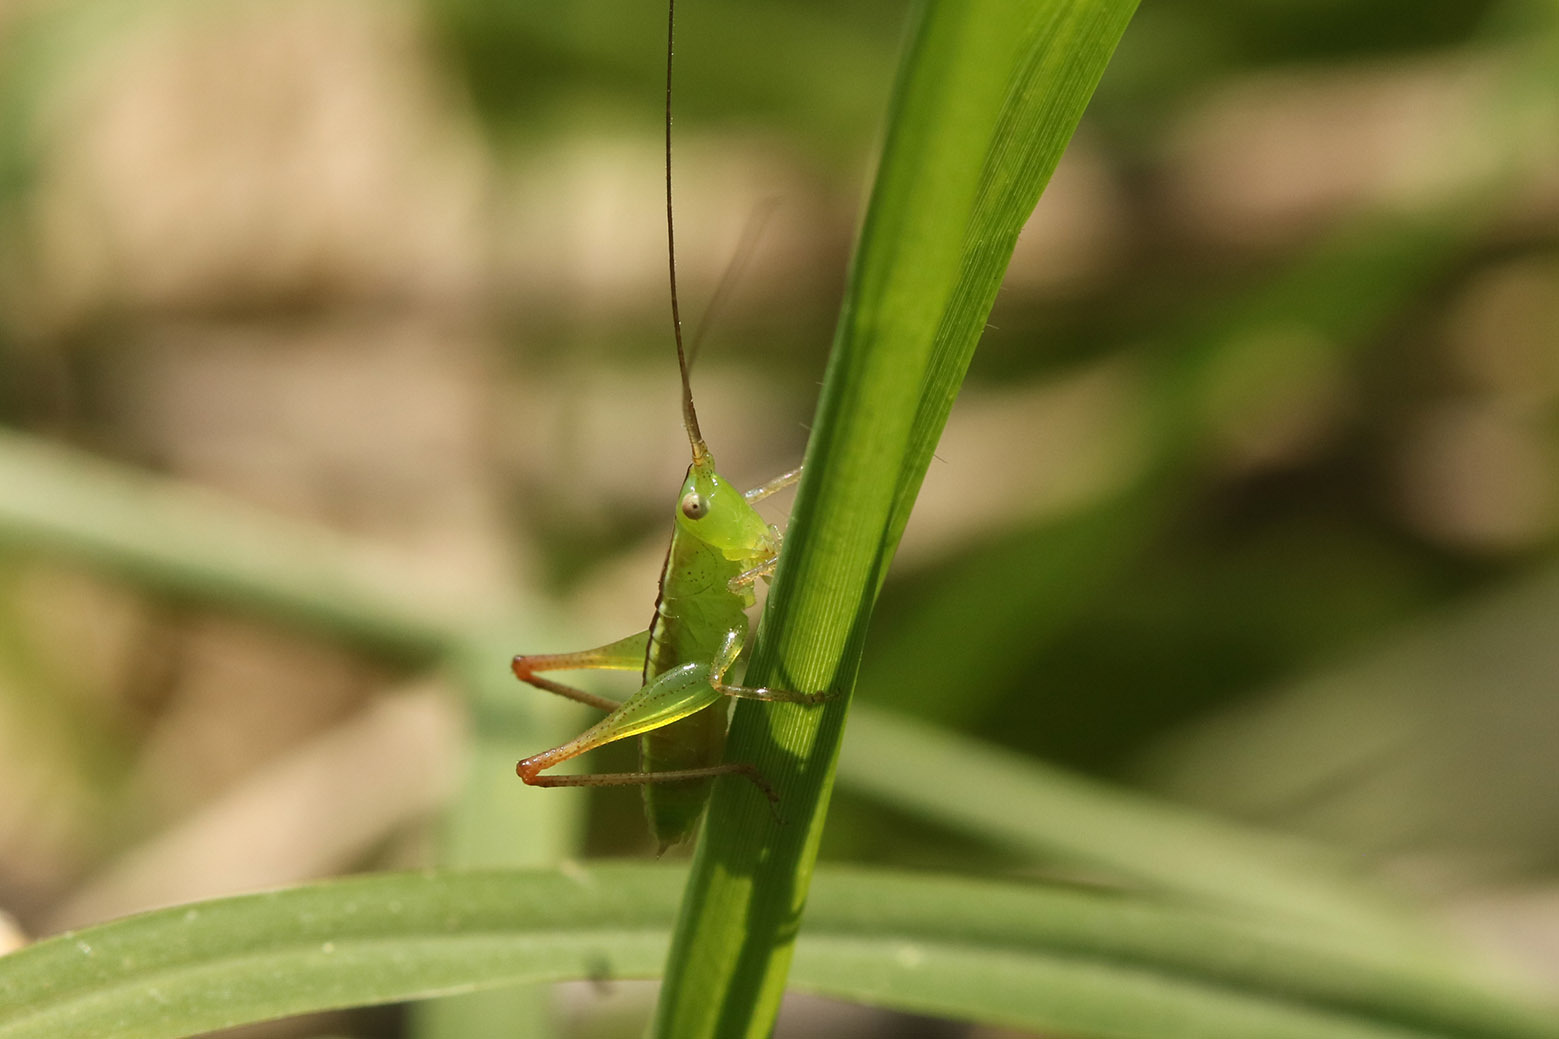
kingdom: Animalia
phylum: Arthropoda
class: Insecta
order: Orthoptera
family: Tettigoniidae
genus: Conocephalus
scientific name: Conocephalus longipes
